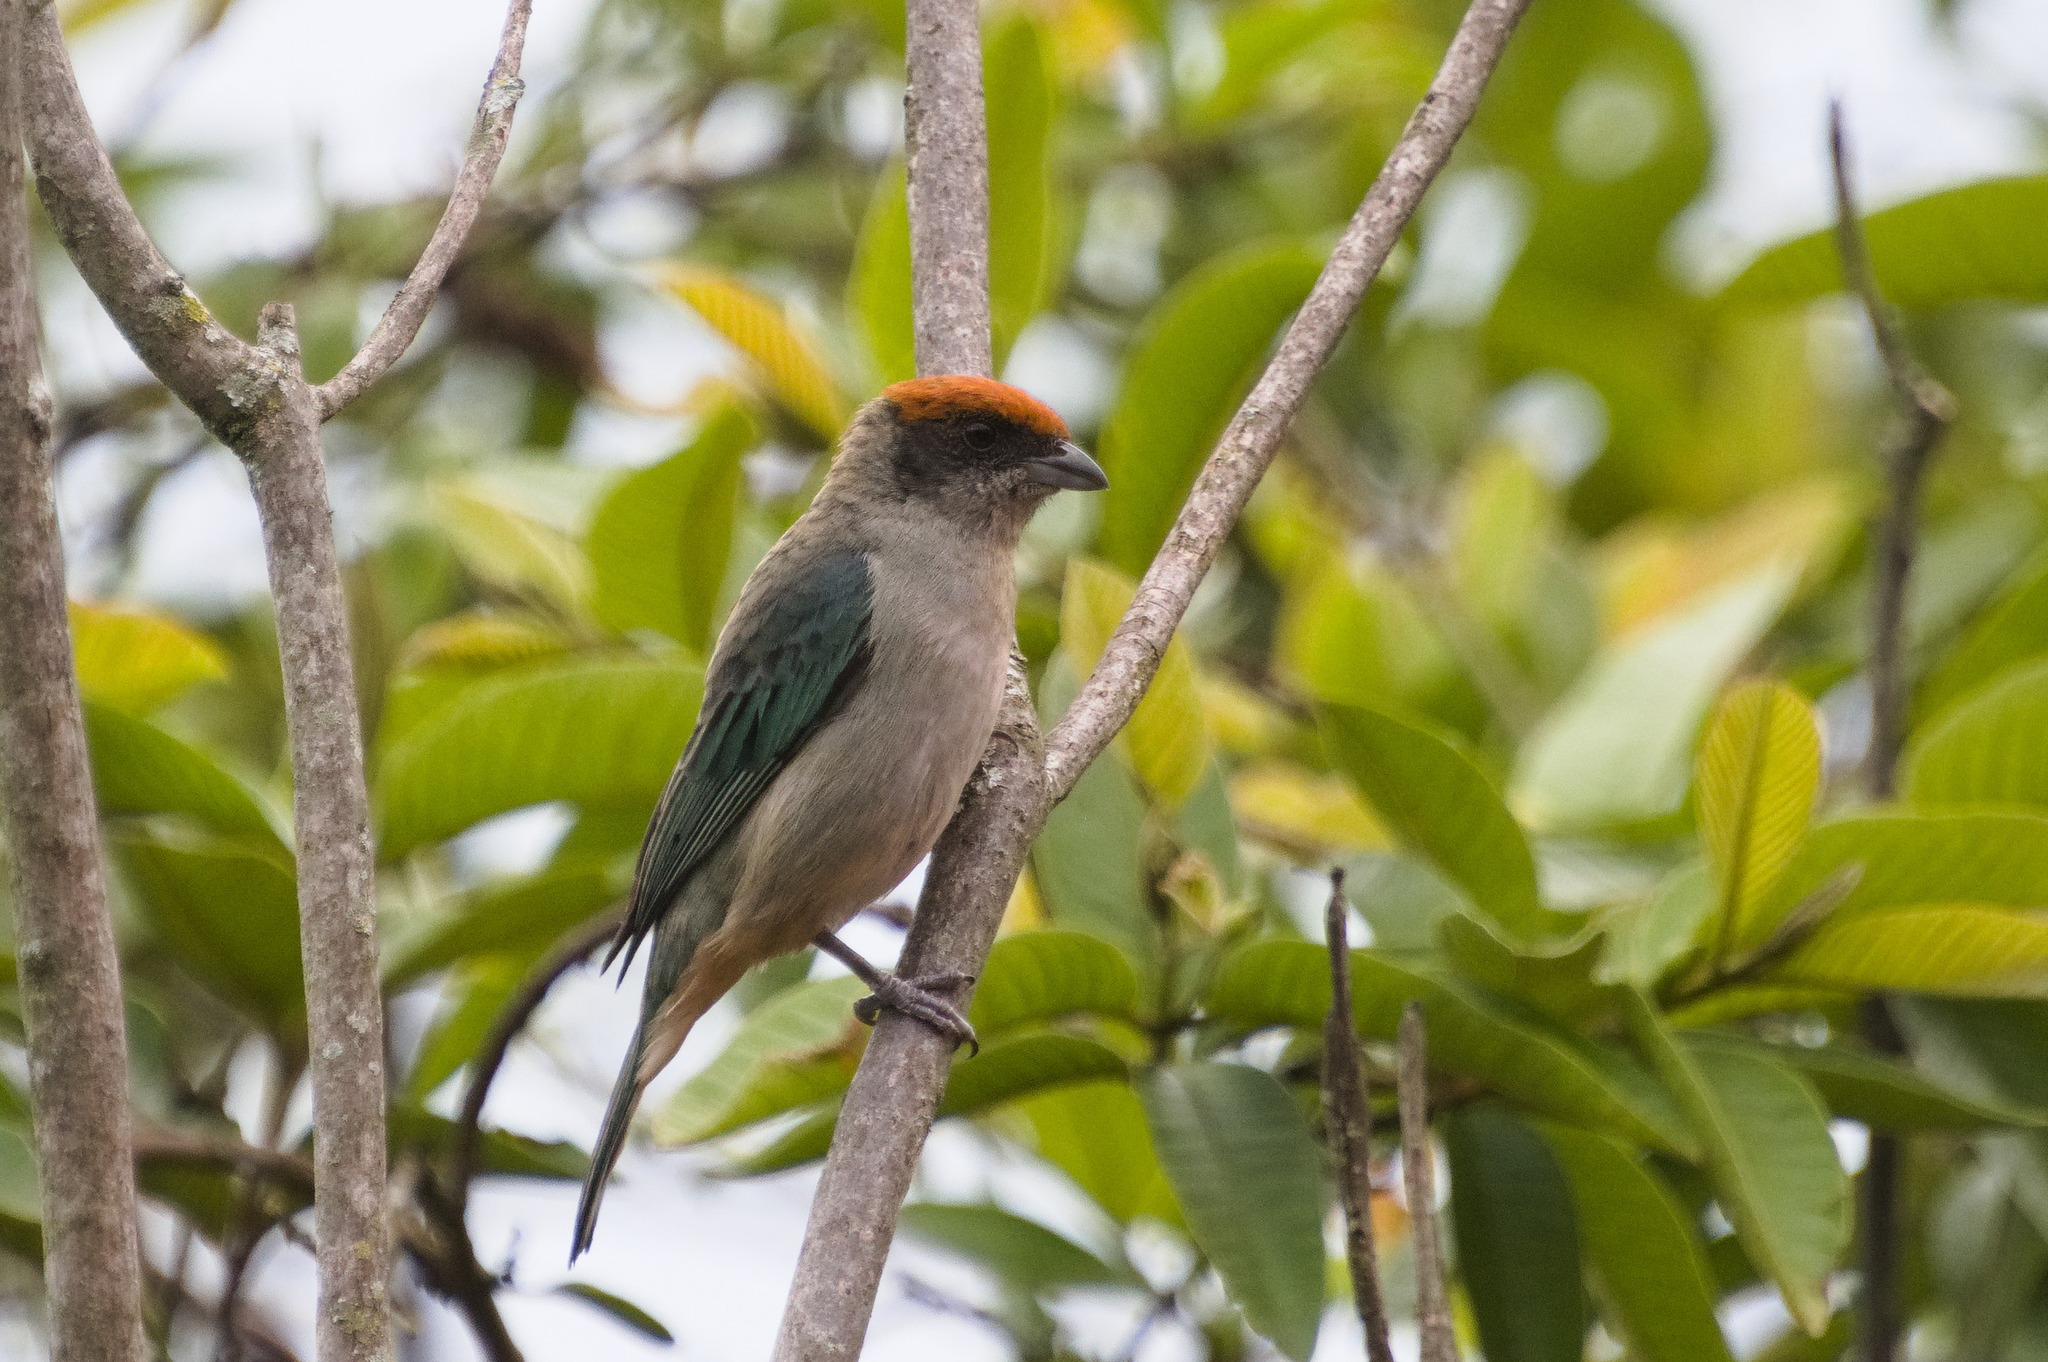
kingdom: Animalia
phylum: Chordata
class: Aves
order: Passeriformes
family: Thraupidae
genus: Stilpnia
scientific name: Stilpnia vitriolina
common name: Scrub tanager
